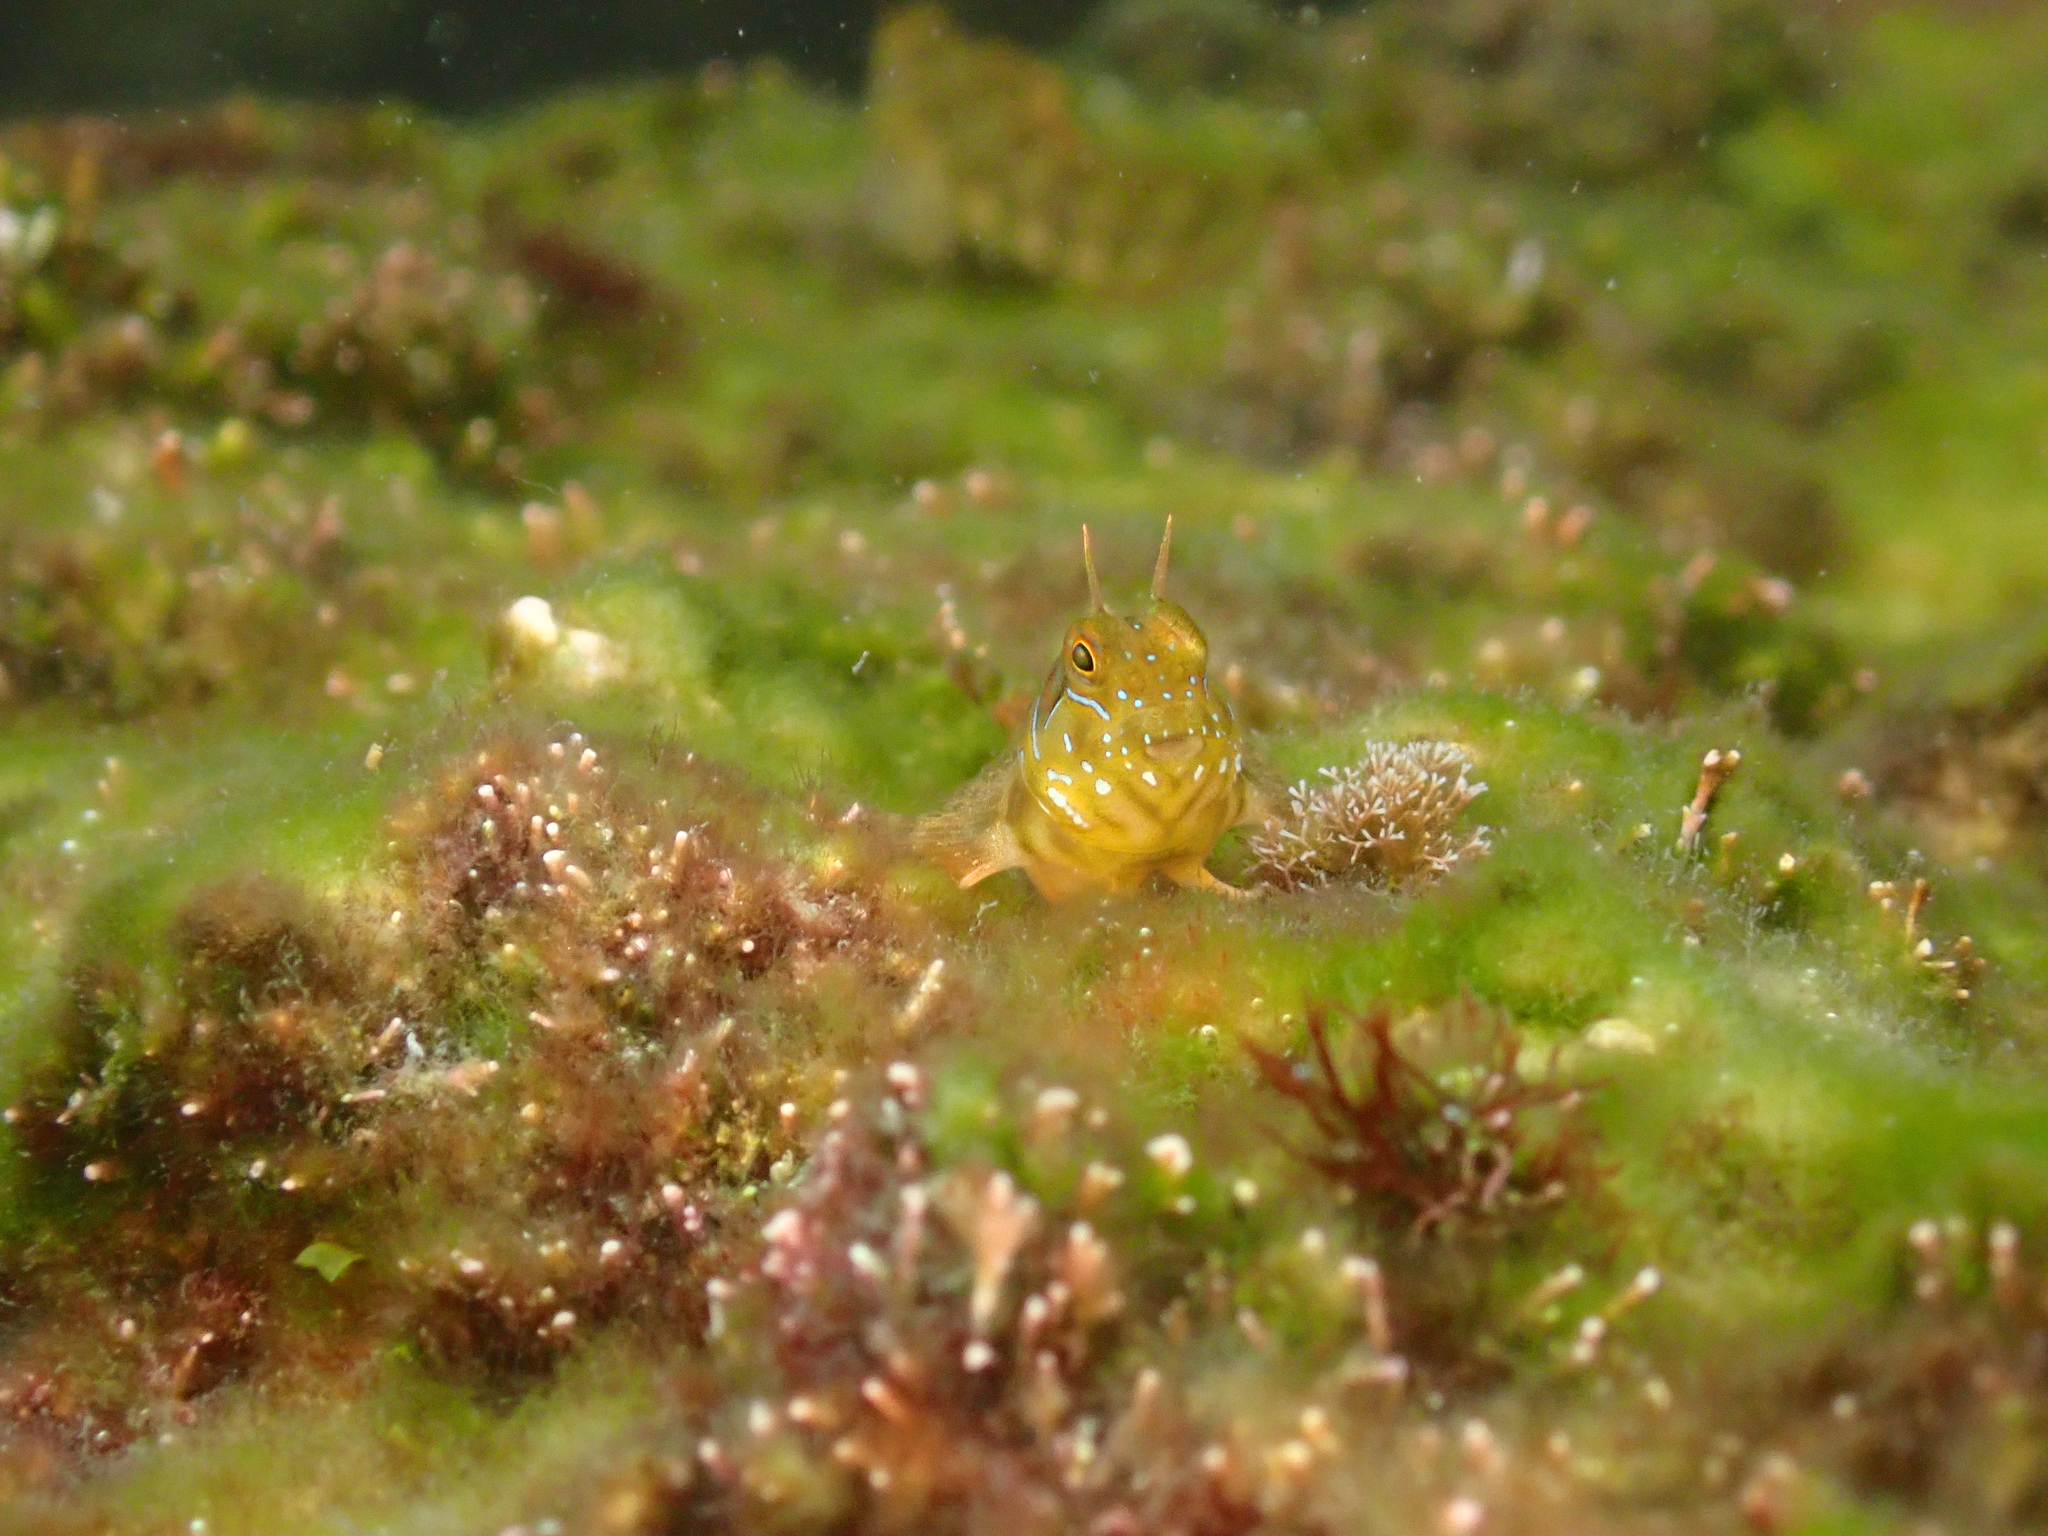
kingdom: Animalia
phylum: Chordata
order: Perciformes
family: Blenniidae
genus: Aidablennius
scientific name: Aidablennius sphynx
